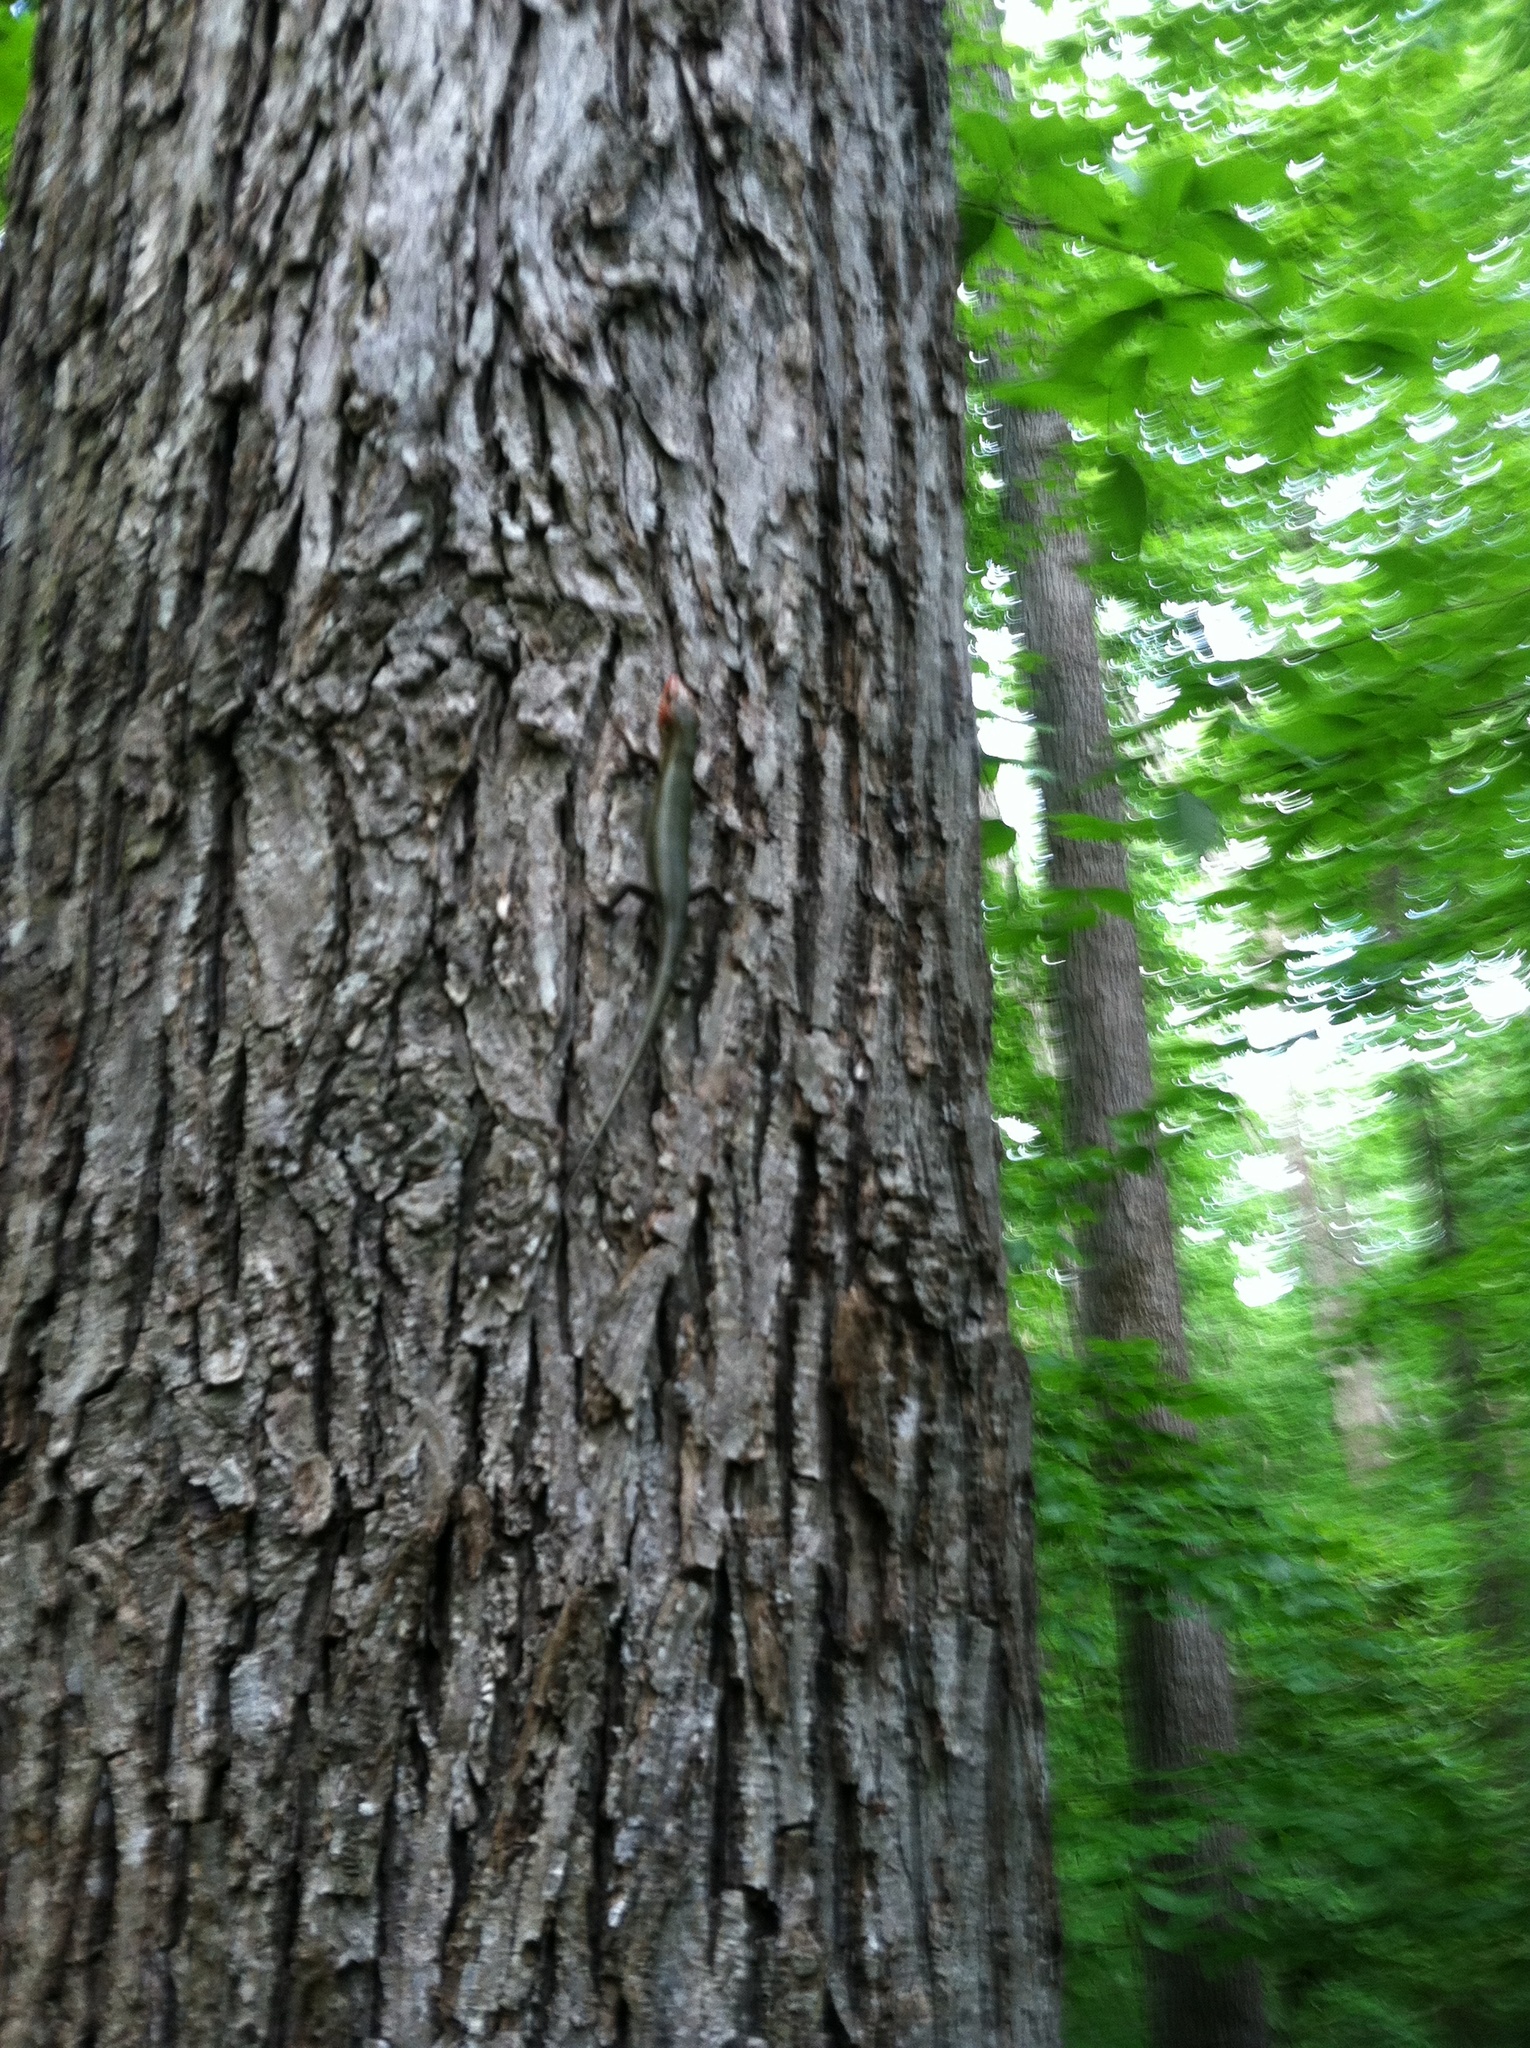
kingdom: Animalia
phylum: Chordata
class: Squamata
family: Scincidae
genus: Plestiodon
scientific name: Plestiodon laticeps
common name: Broadhead skink
